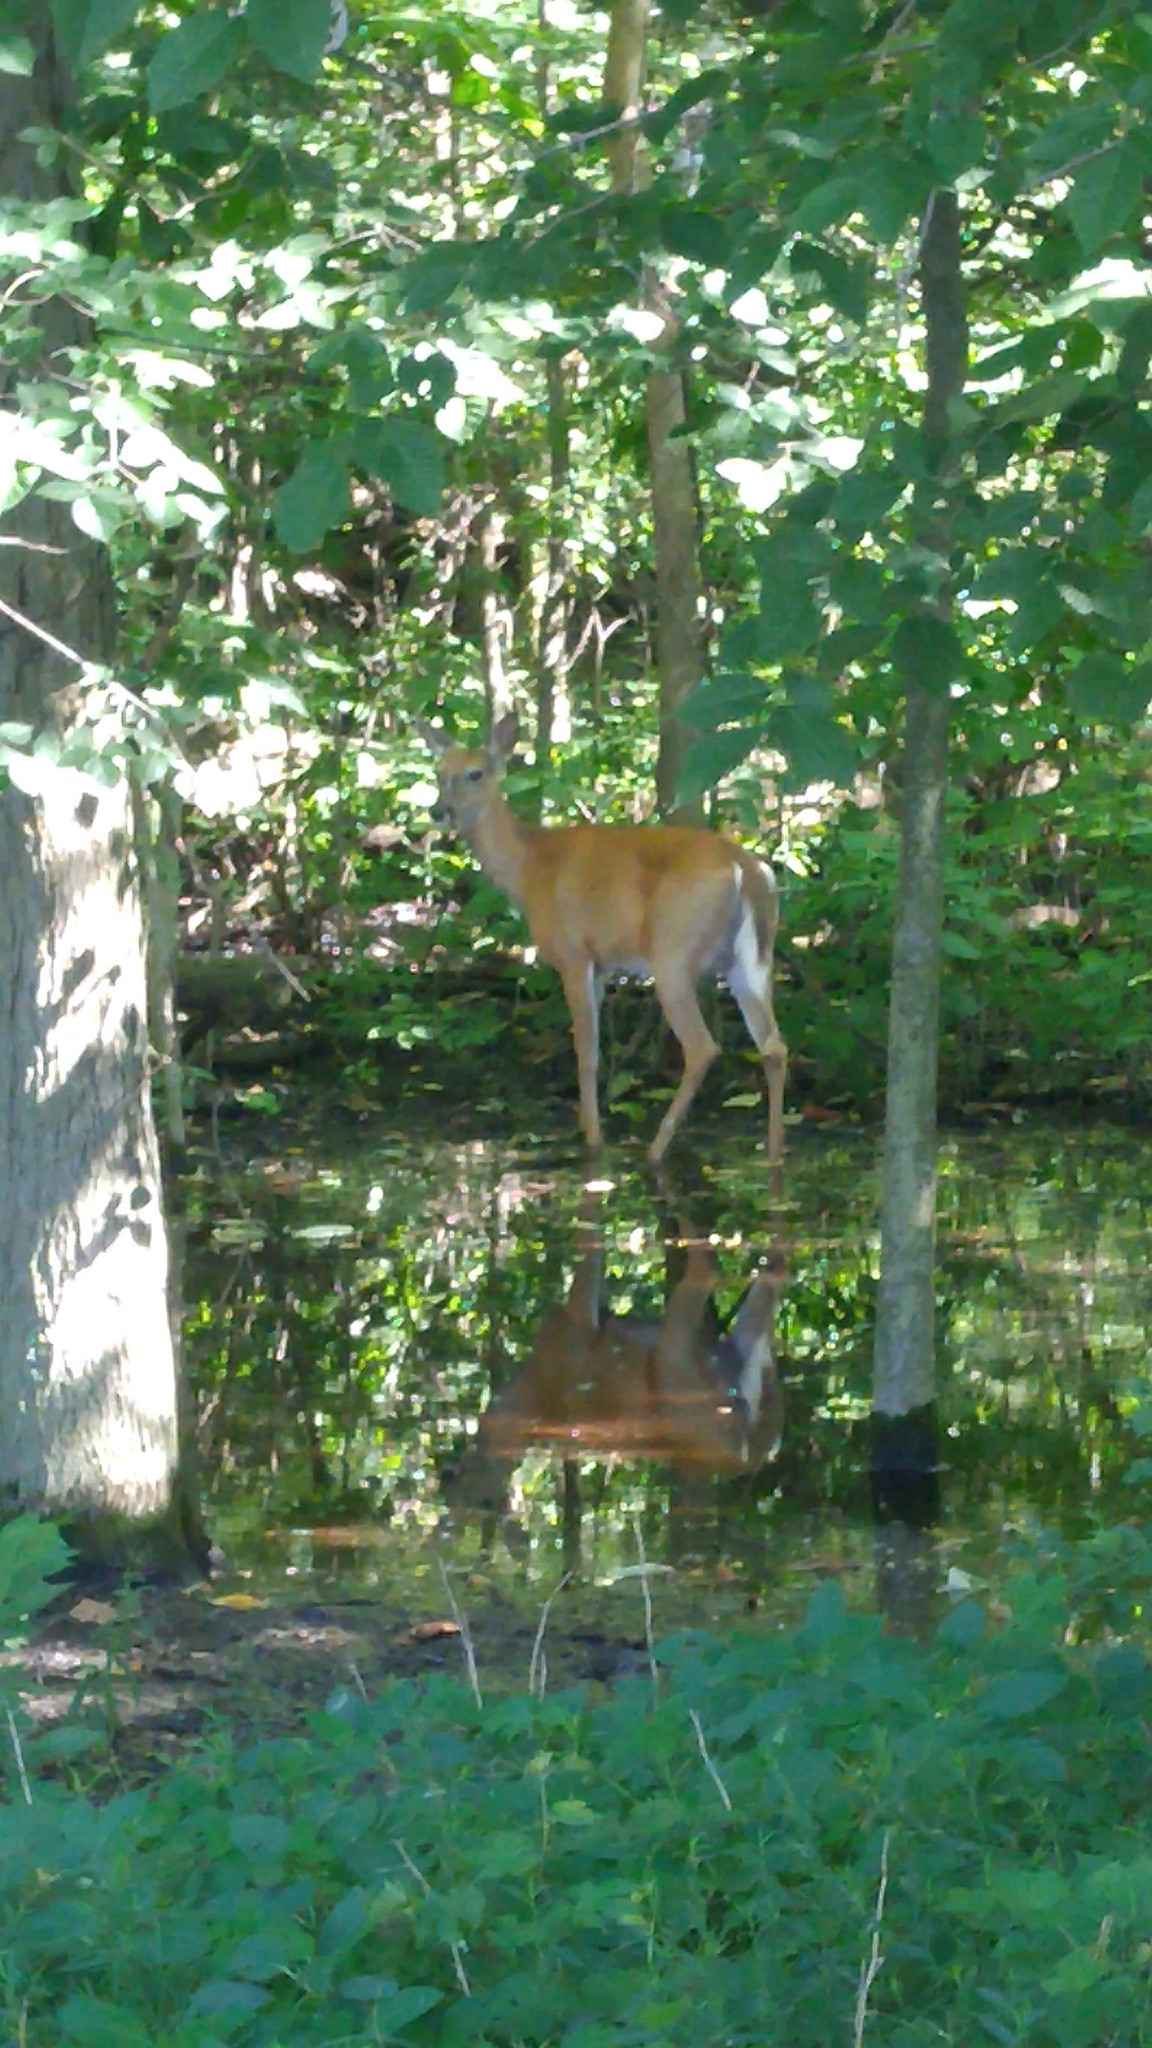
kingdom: Animalia
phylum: Chordata
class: Mammalia
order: Artiodactyla
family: Cervidae
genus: Odocoileus
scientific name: Odocoileus virginianus
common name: White-tailed deer
